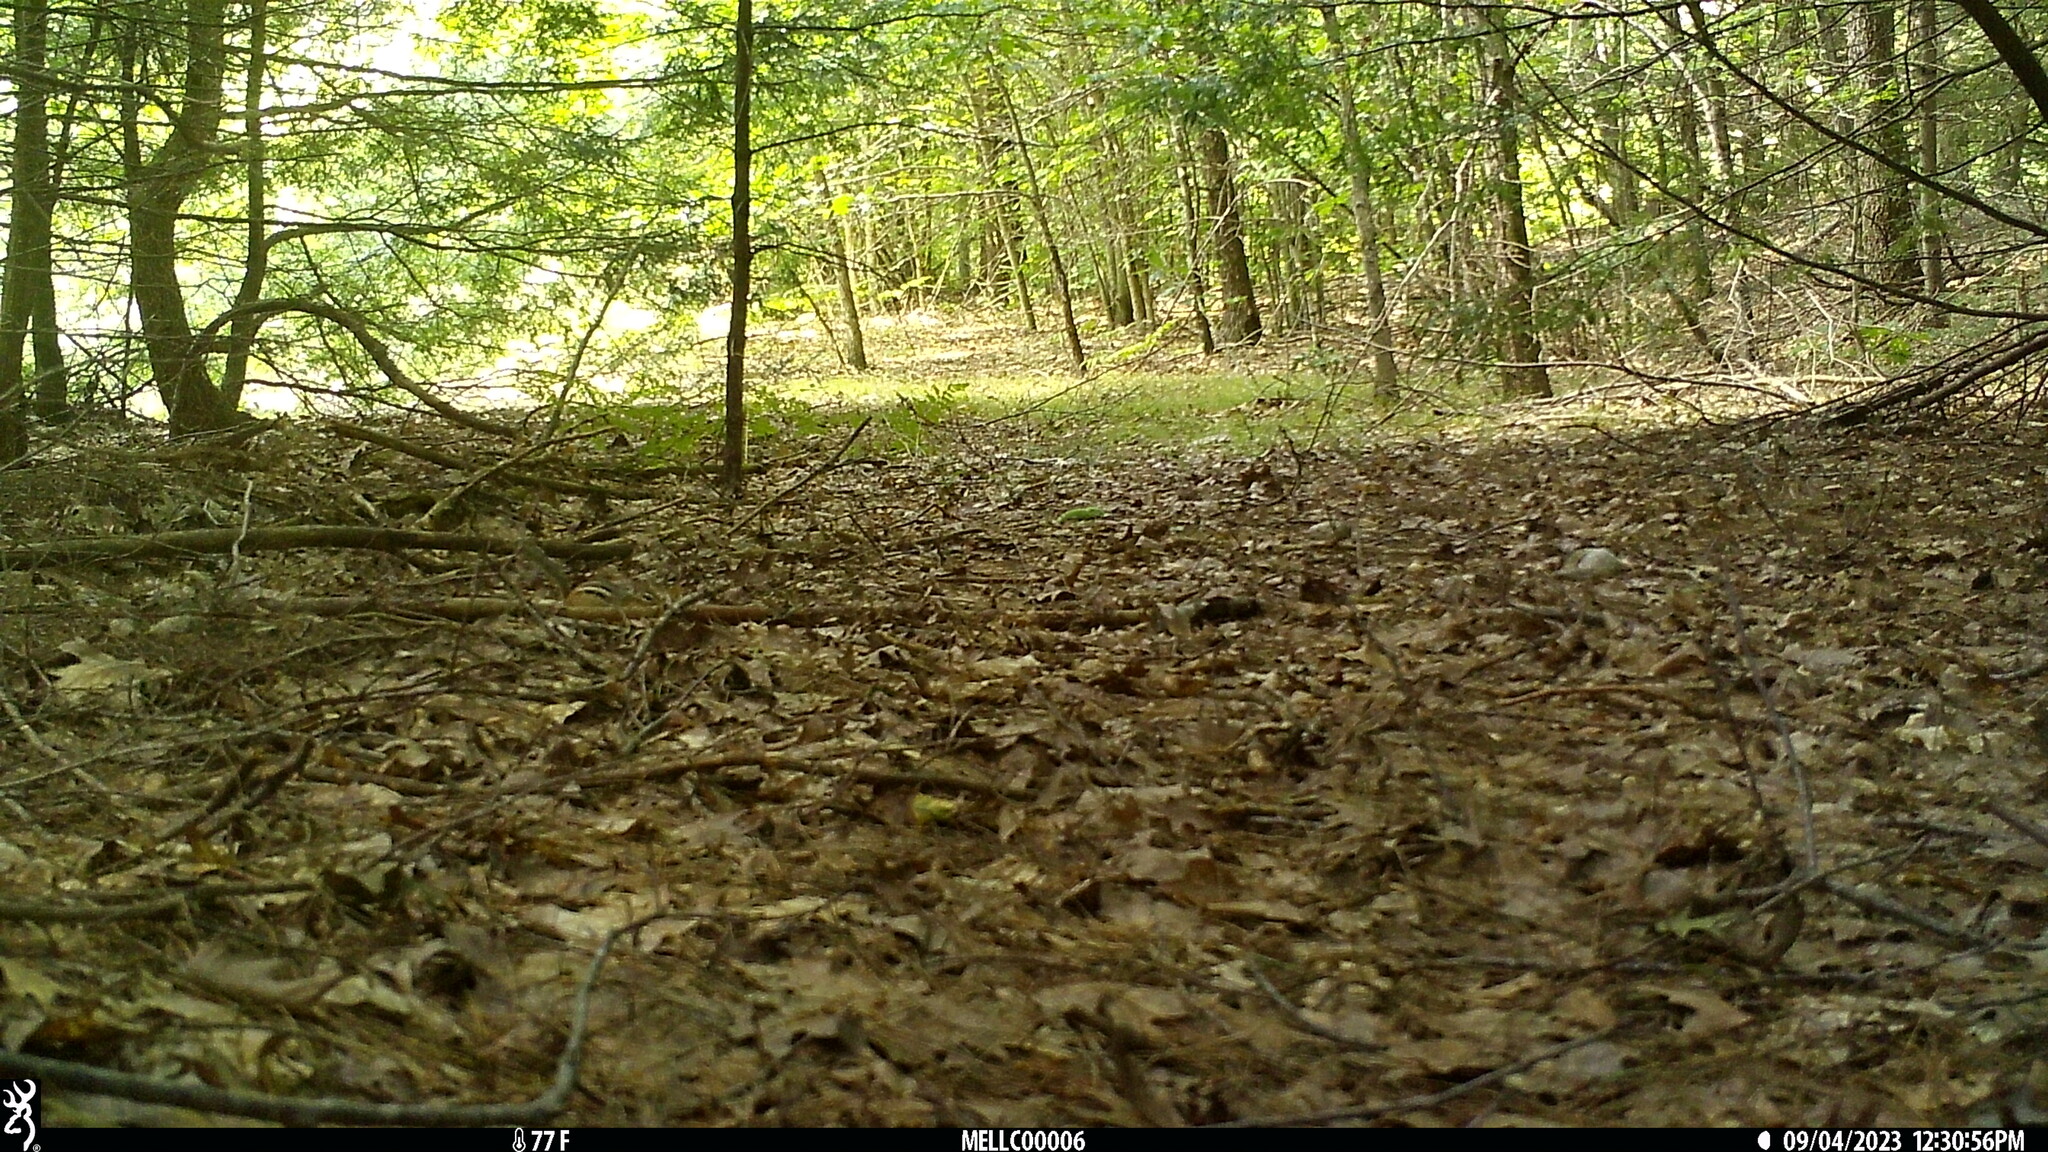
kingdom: Animalia
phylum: Chordata
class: Mammalia
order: Rodentia
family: Sciuridae
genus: Tamias
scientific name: Tamias striatus
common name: Eastern chipmunk
